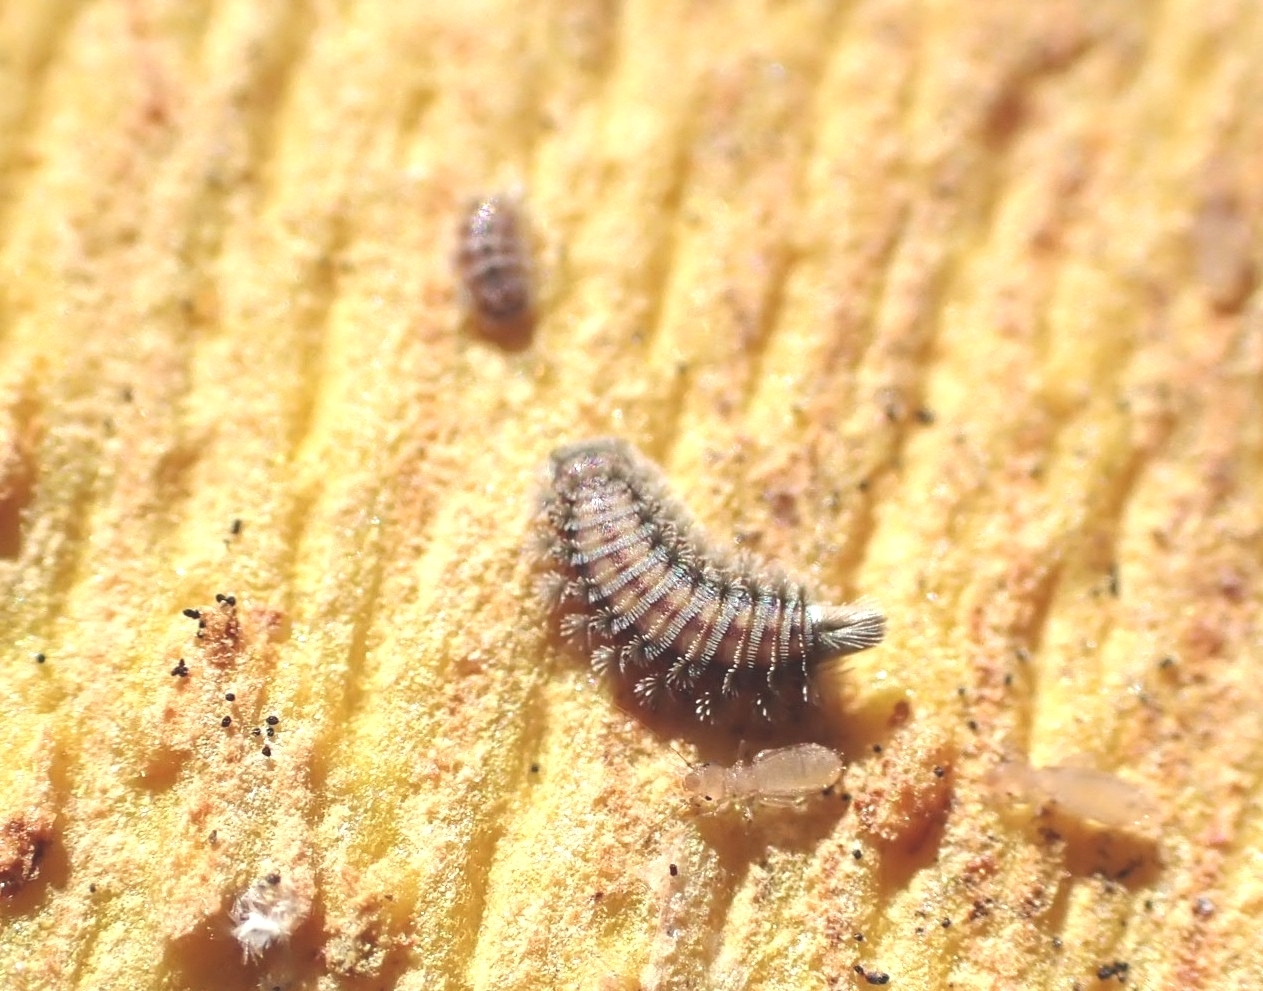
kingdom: Animalia
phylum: Arthropoda
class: Diplopoda
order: Polyxenida
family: Polyxenidae
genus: Polyxenus
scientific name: Polyxenus lagurus
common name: Bristly millipede
